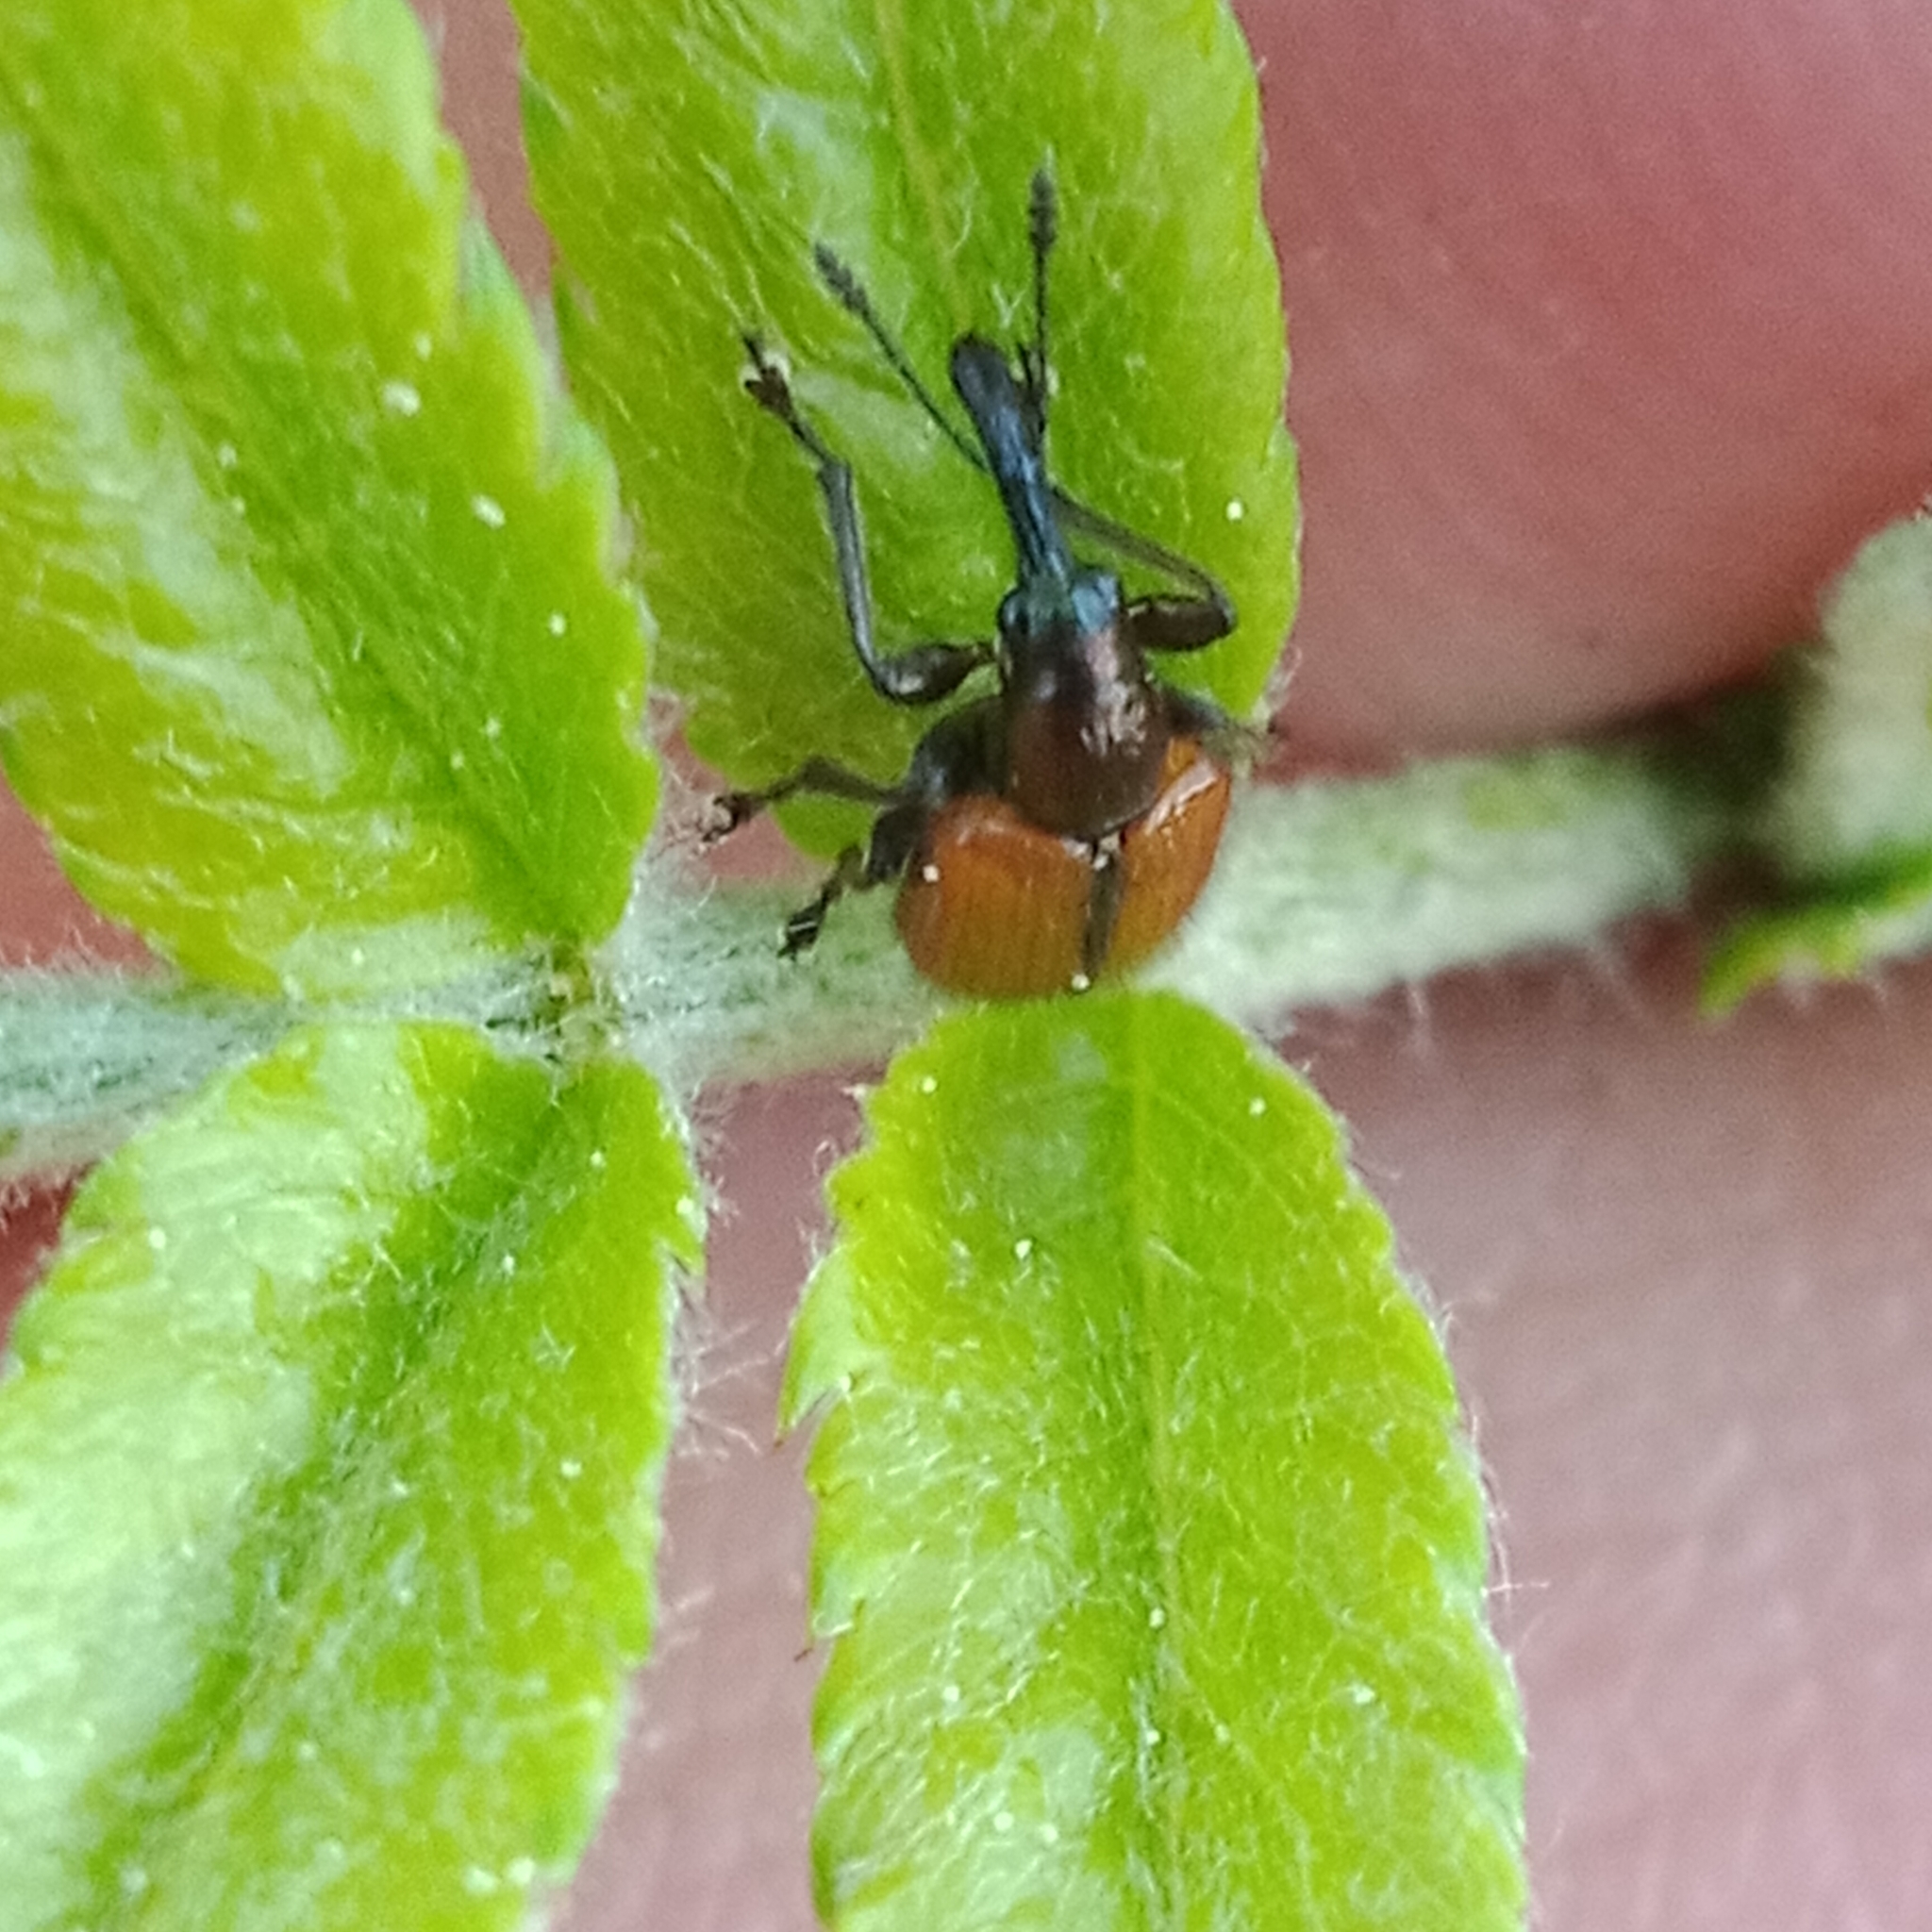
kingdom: Animalia
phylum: Arthropoda
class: Insecta
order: Coleoptera
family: Rhynchitidae
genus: Tatianaerhynchites
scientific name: Tatianaerhynchites aequatus
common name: Apple fruit rhynchites
